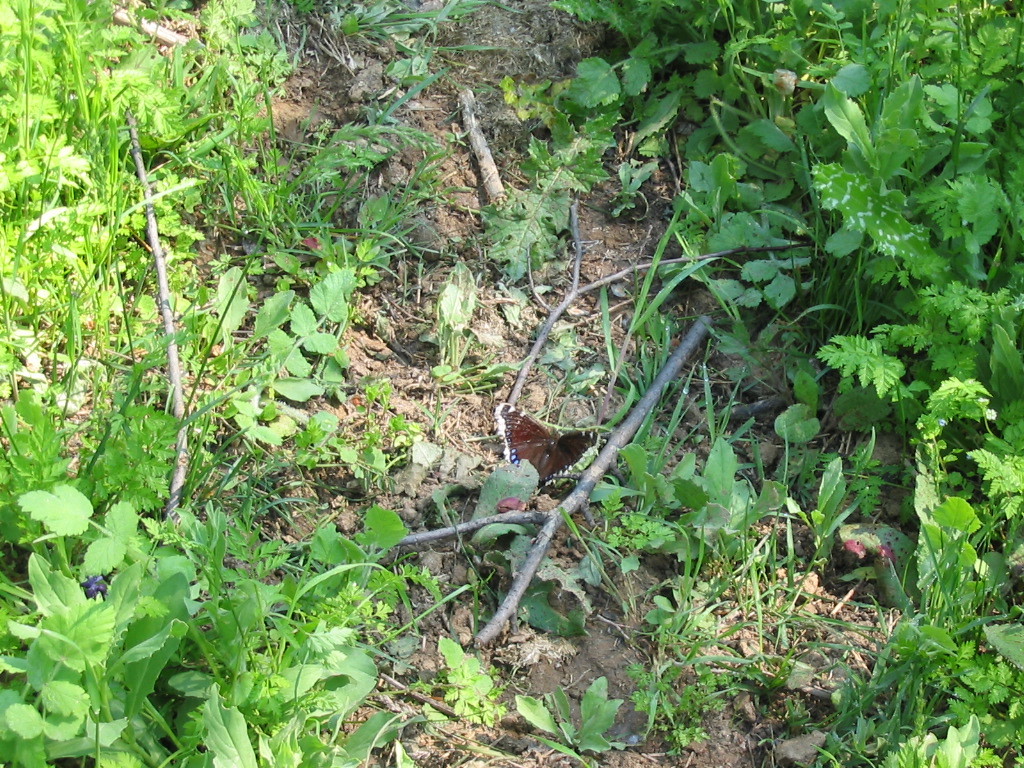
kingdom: Animalia
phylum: Arthropoda
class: Insecta
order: Lepidoptera
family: Nymphalidae
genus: Nymphalis
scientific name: Nymphalis antiopa
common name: Camberwell beauty
